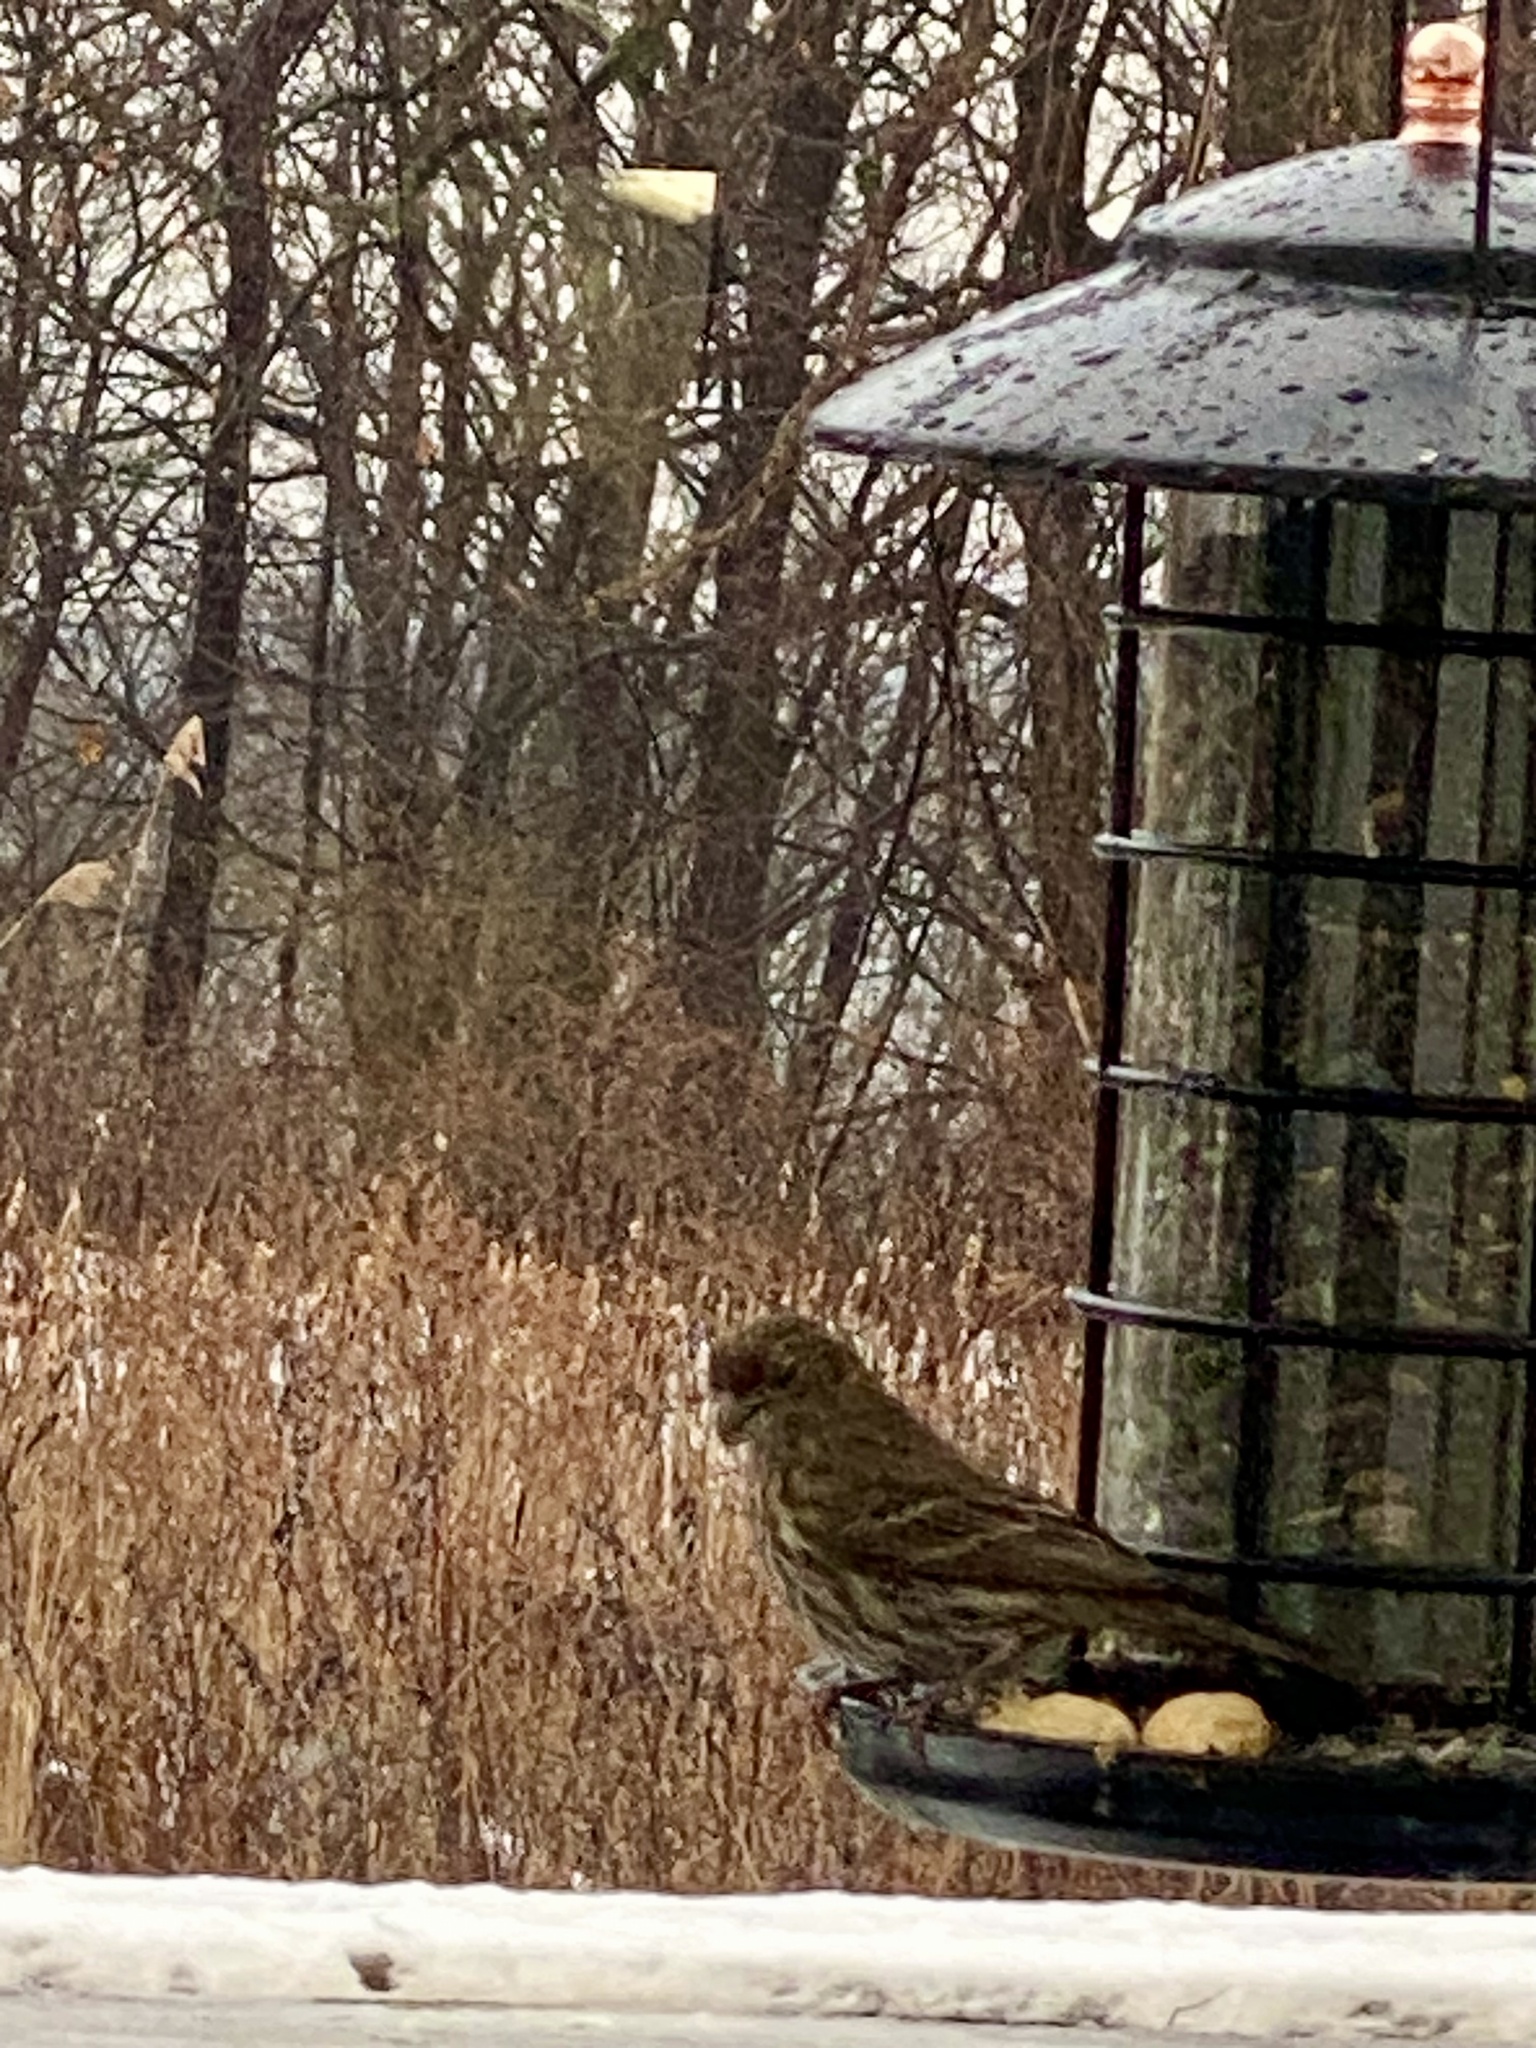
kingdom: Animalia
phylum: Chordata
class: Aves
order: Passeriformes
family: Fringillidae
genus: Haemorhous
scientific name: Haemorhous mexicanus
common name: House finch
